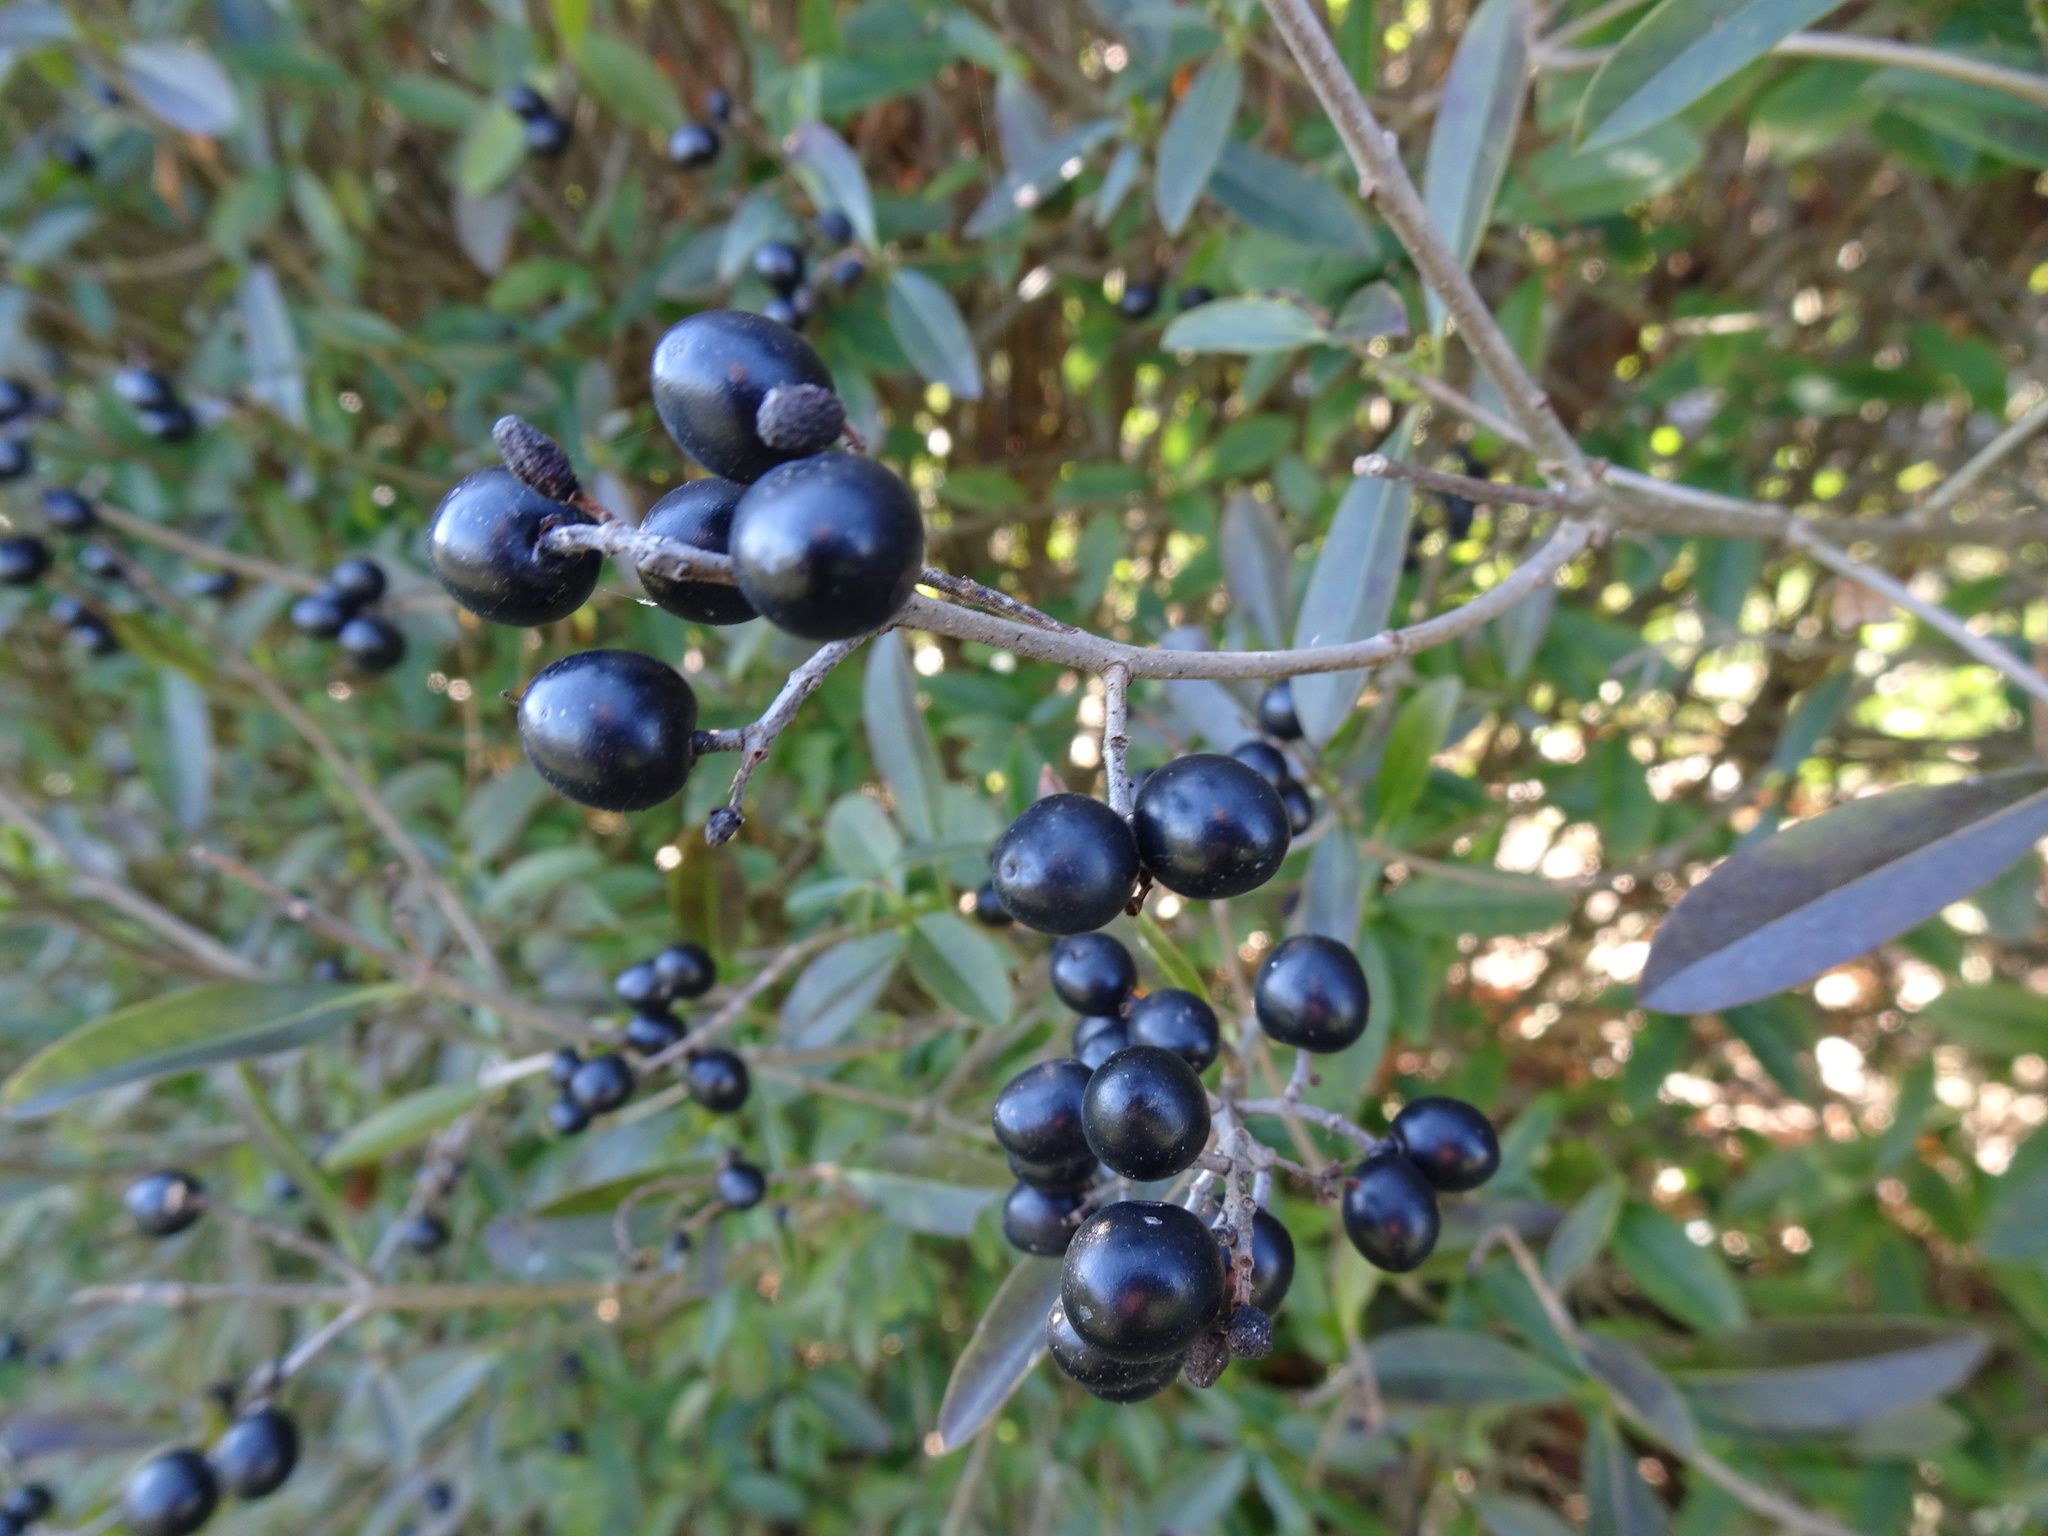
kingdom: Plantae
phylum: Tracheophyta
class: Magnoliopsida
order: Lamiales
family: Oleaceae
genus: Ligustrum
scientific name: Ligustrum vulgare
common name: Wild privet
